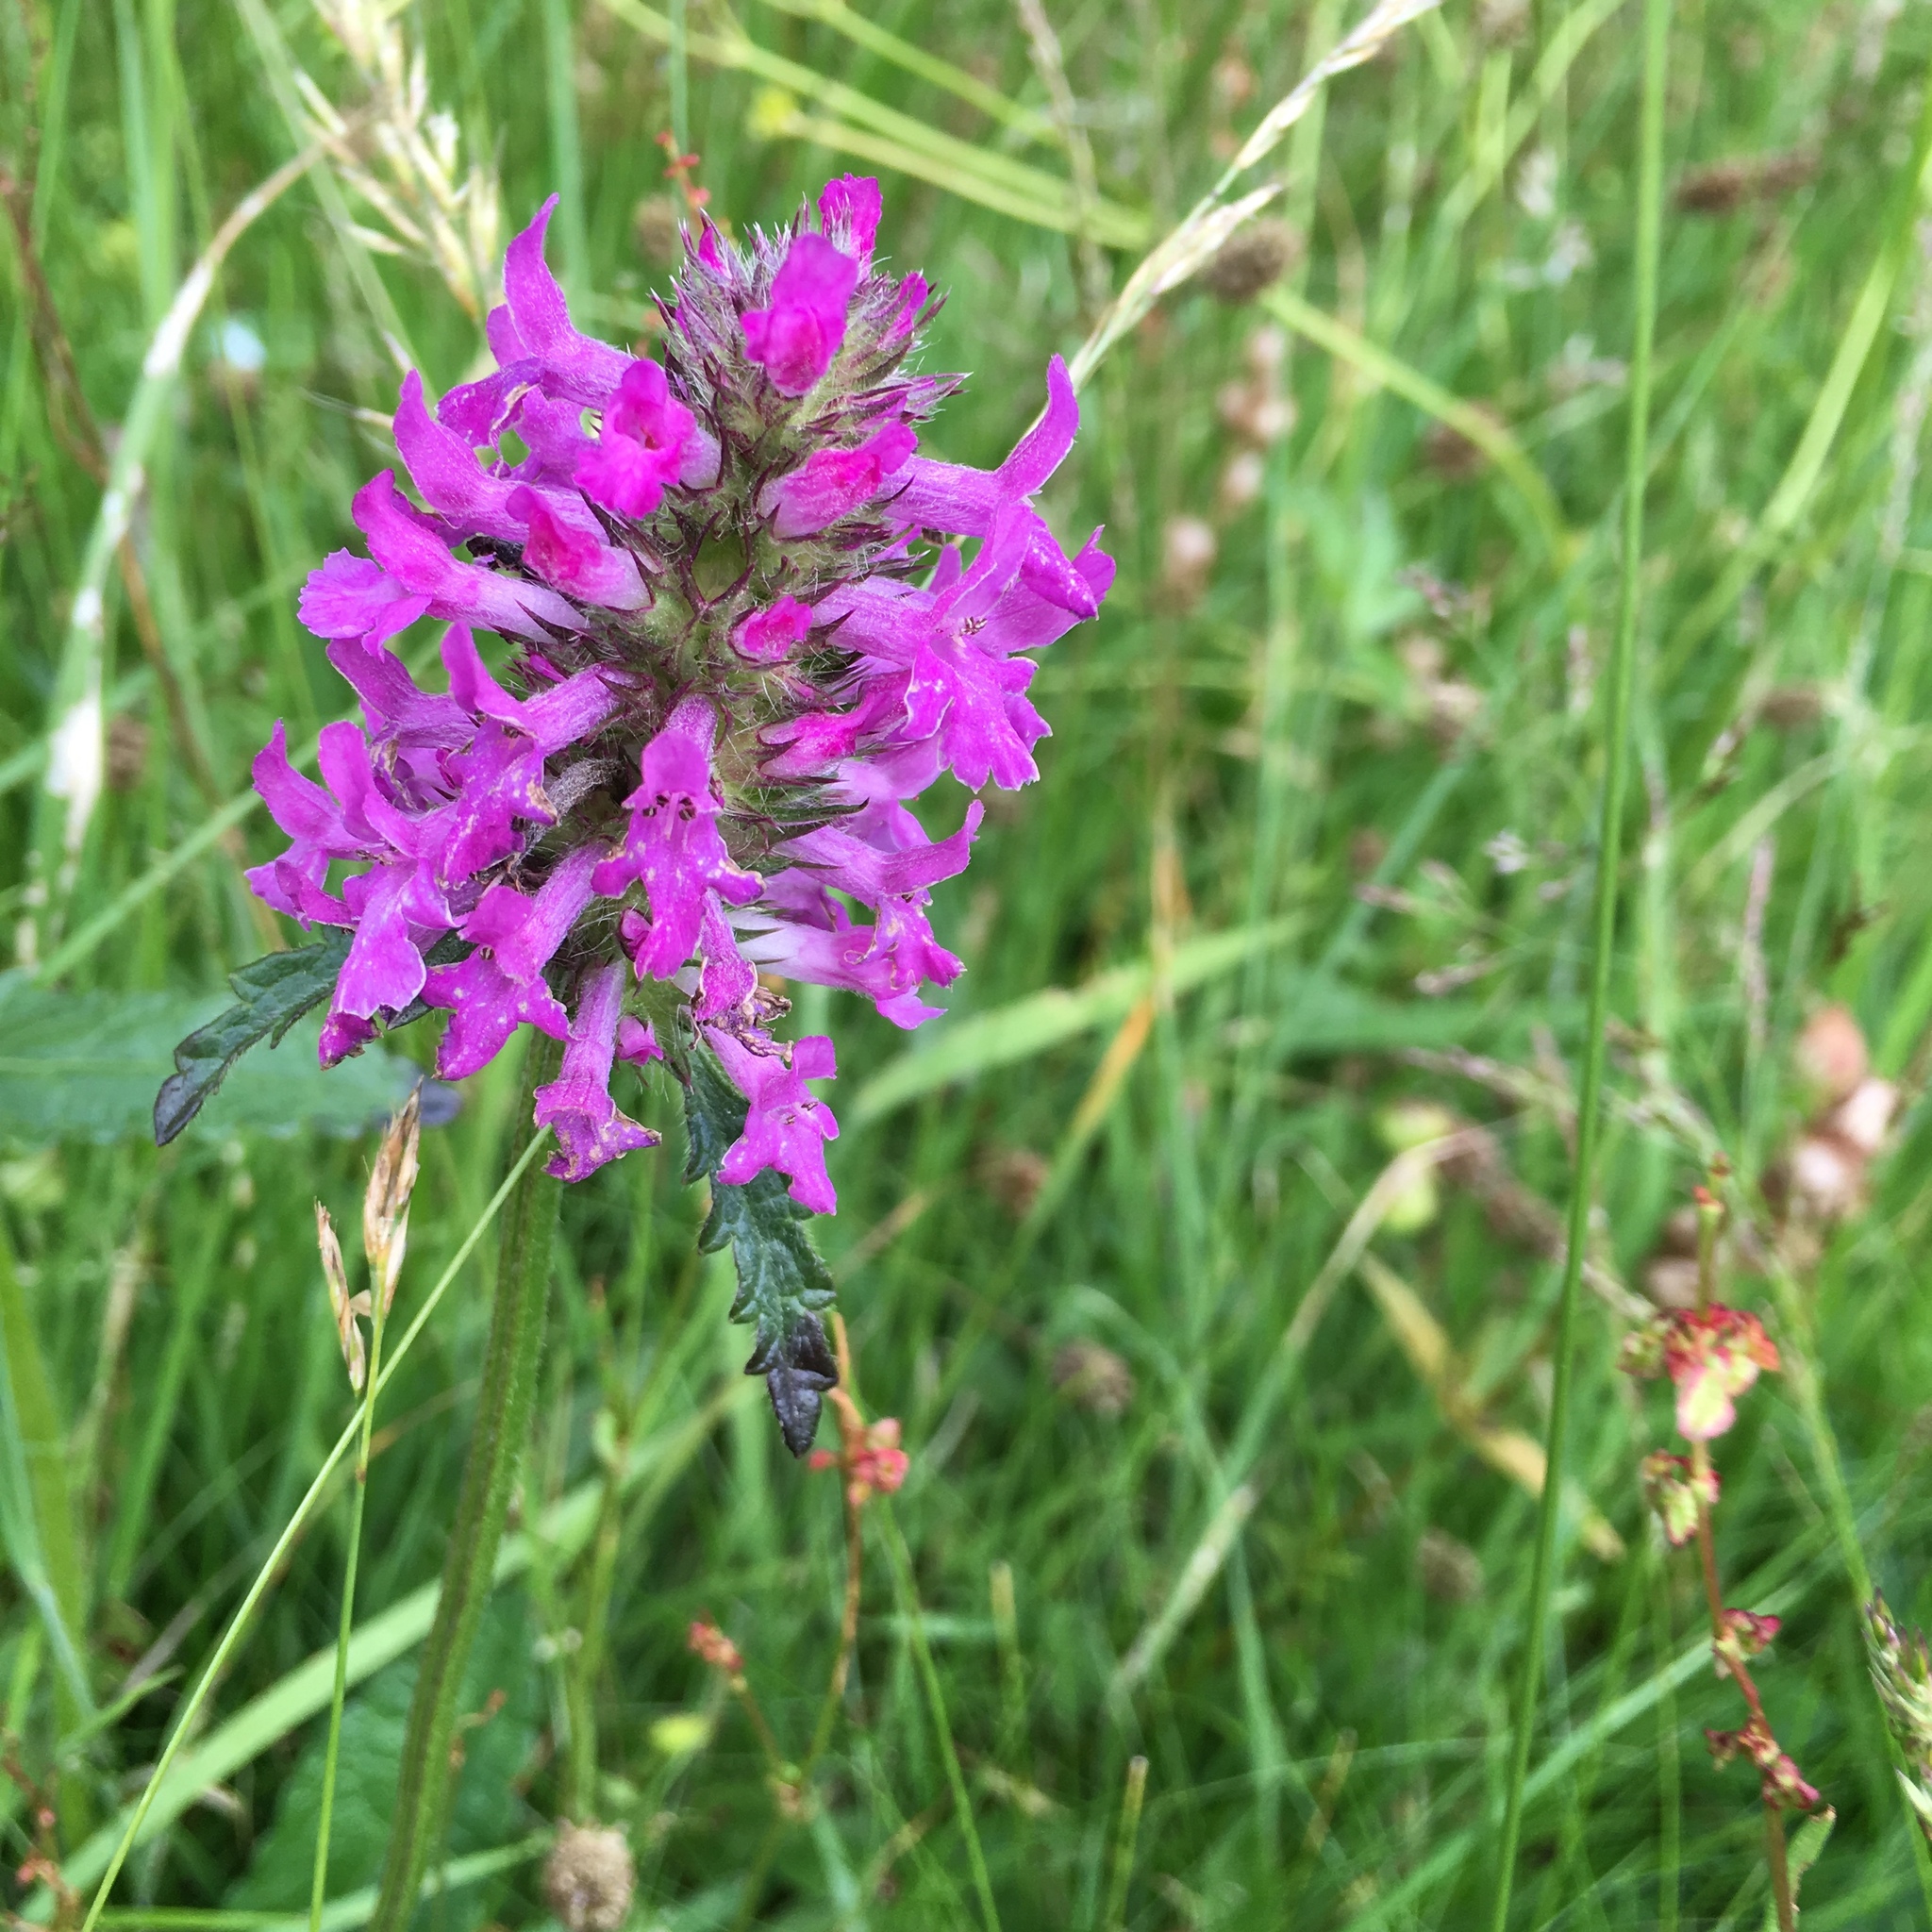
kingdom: Plantae
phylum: Tracheophyta
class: Magnoliopsida
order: Lamiales
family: Lamiaceae
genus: Betonica
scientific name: Betonica officinalis
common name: Bishop's-wort
